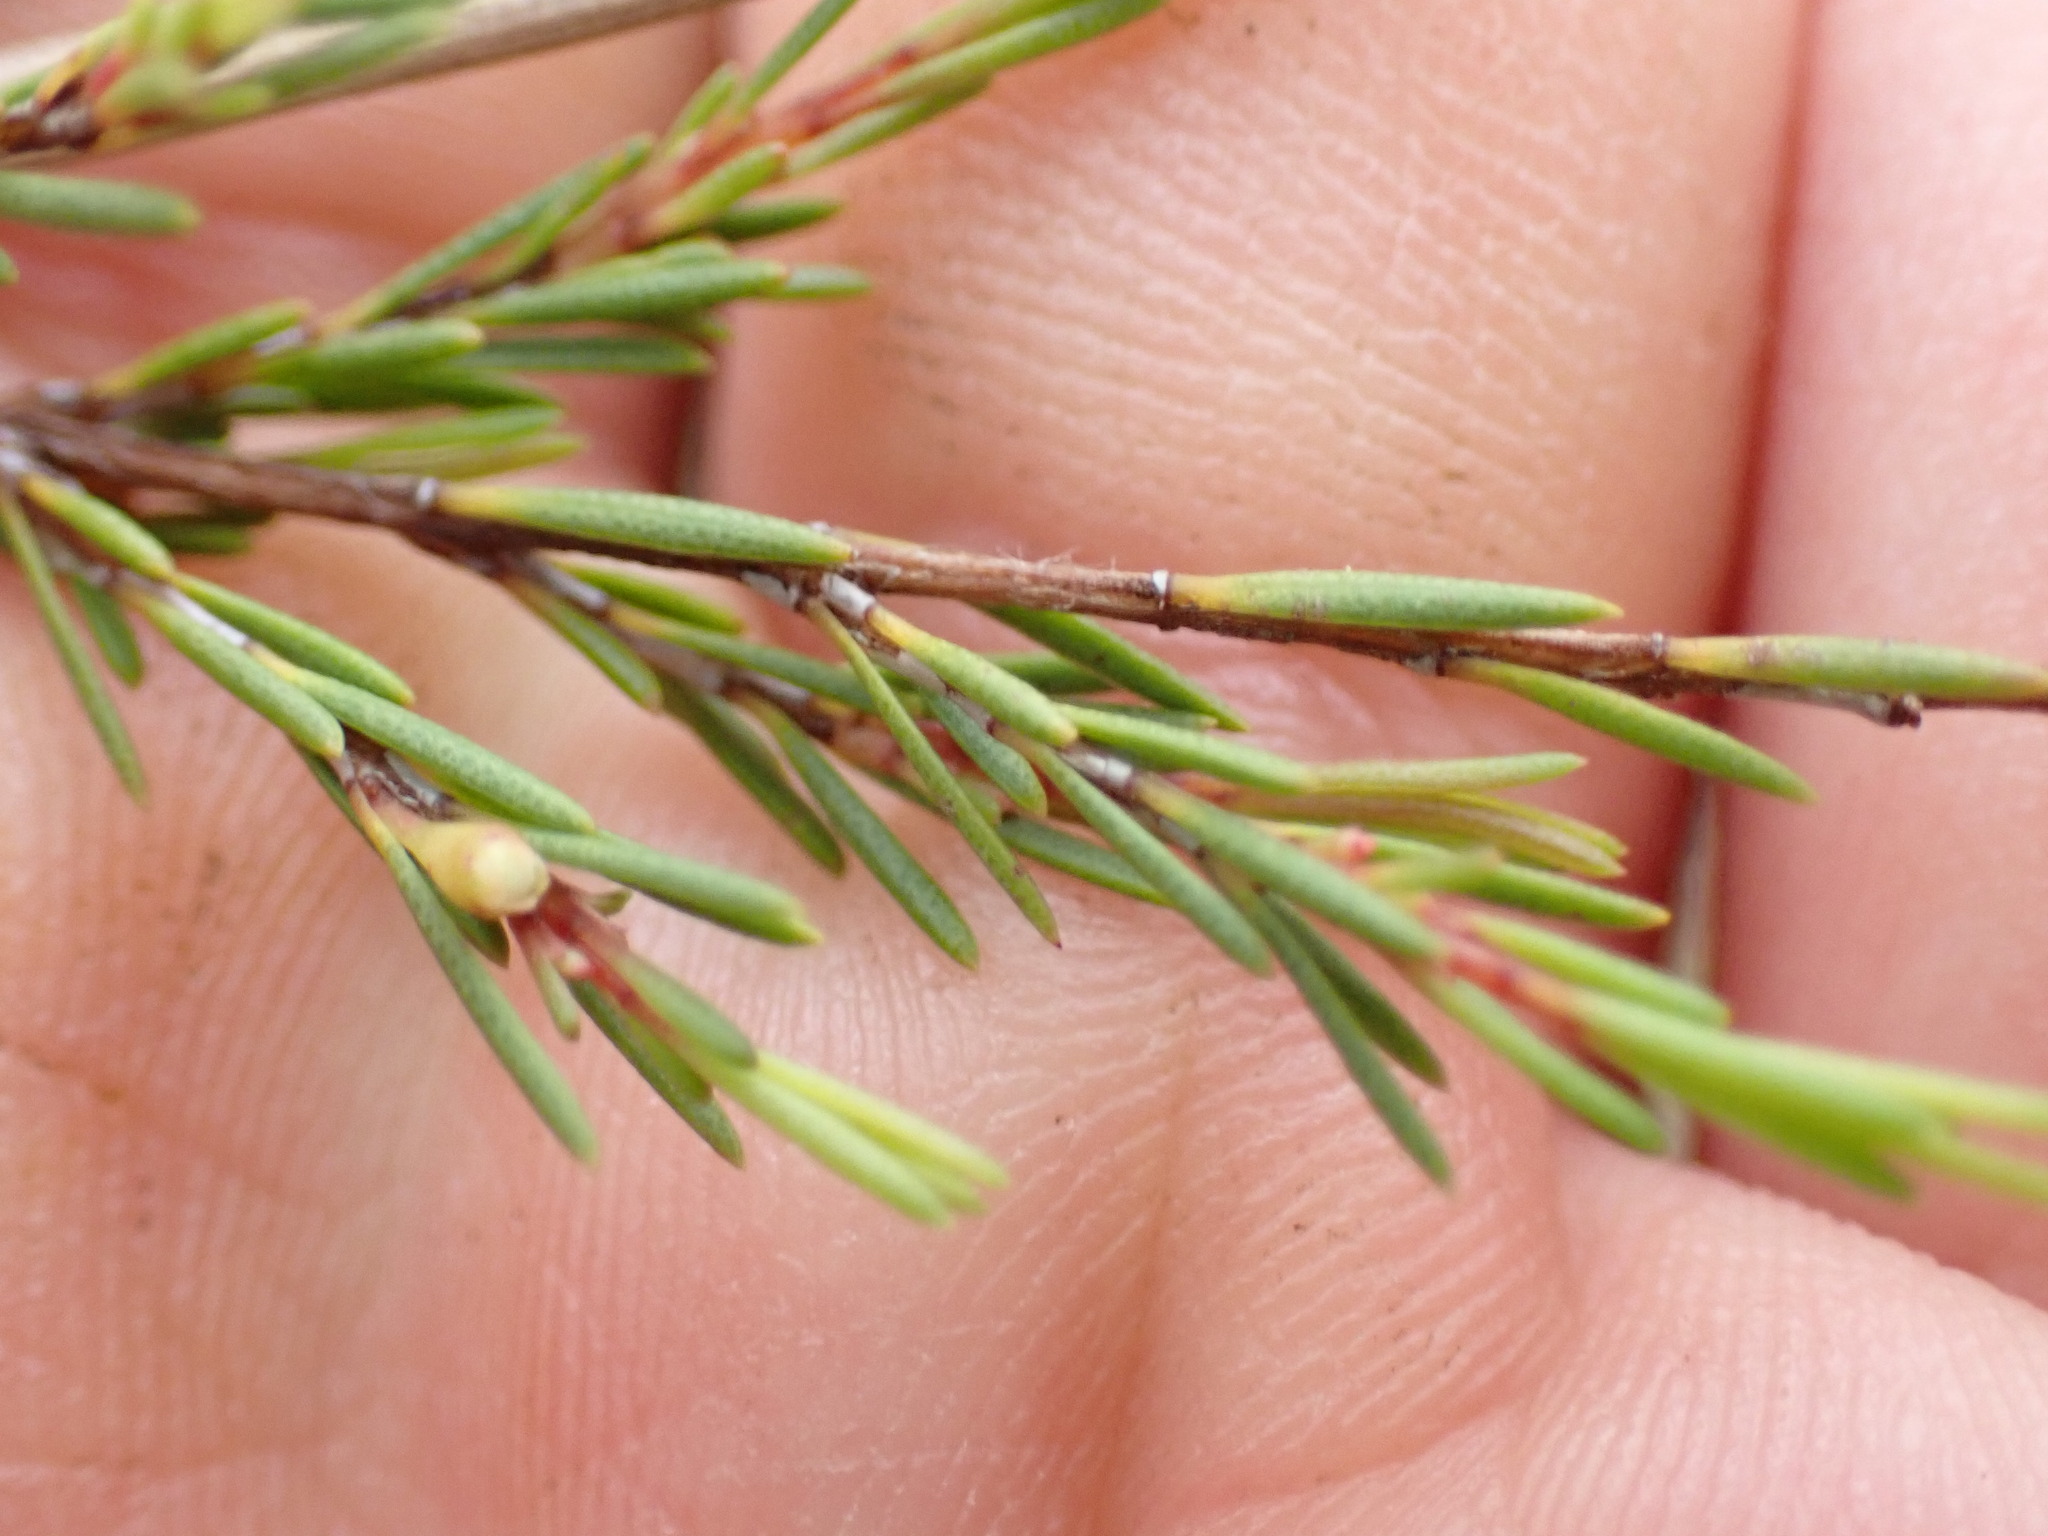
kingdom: Plantae
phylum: Tracheophyta
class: Magnoliopsida
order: Myrtales
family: Myrtaceae
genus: Baeckea
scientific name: Baeckea frutescens
